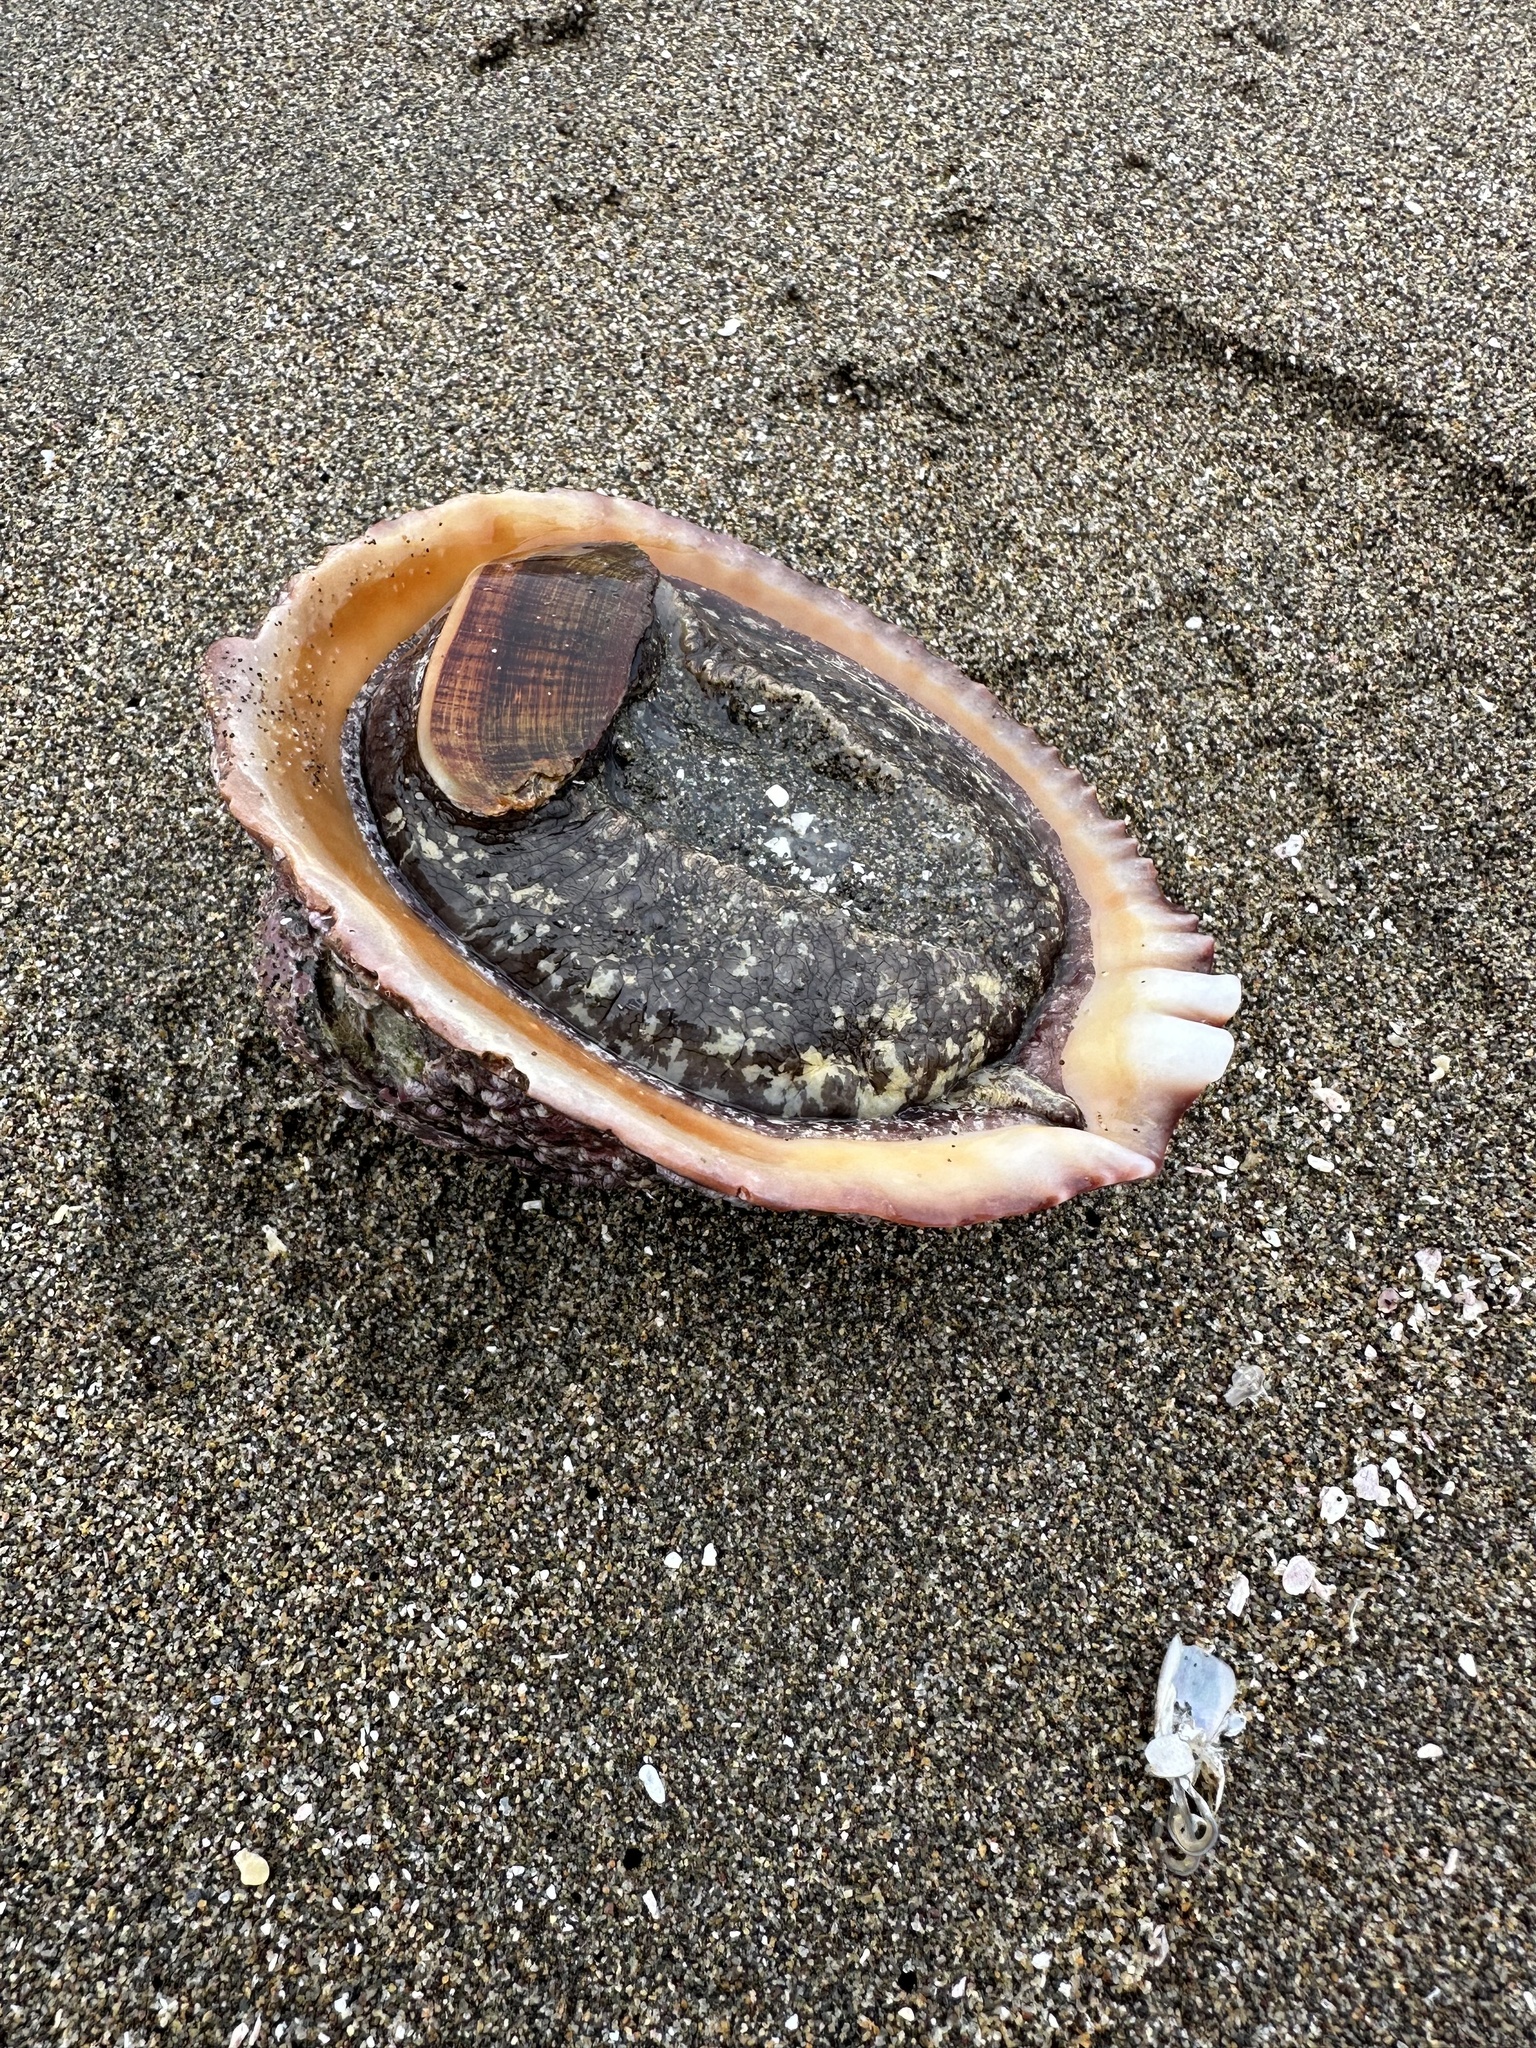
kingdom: Animalia
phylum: Mollusca
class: Gastropoda
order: Neogastropoda
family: Muricidae
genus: Concholepas
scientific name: Concholepas concholepas
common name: Chilean abalone
